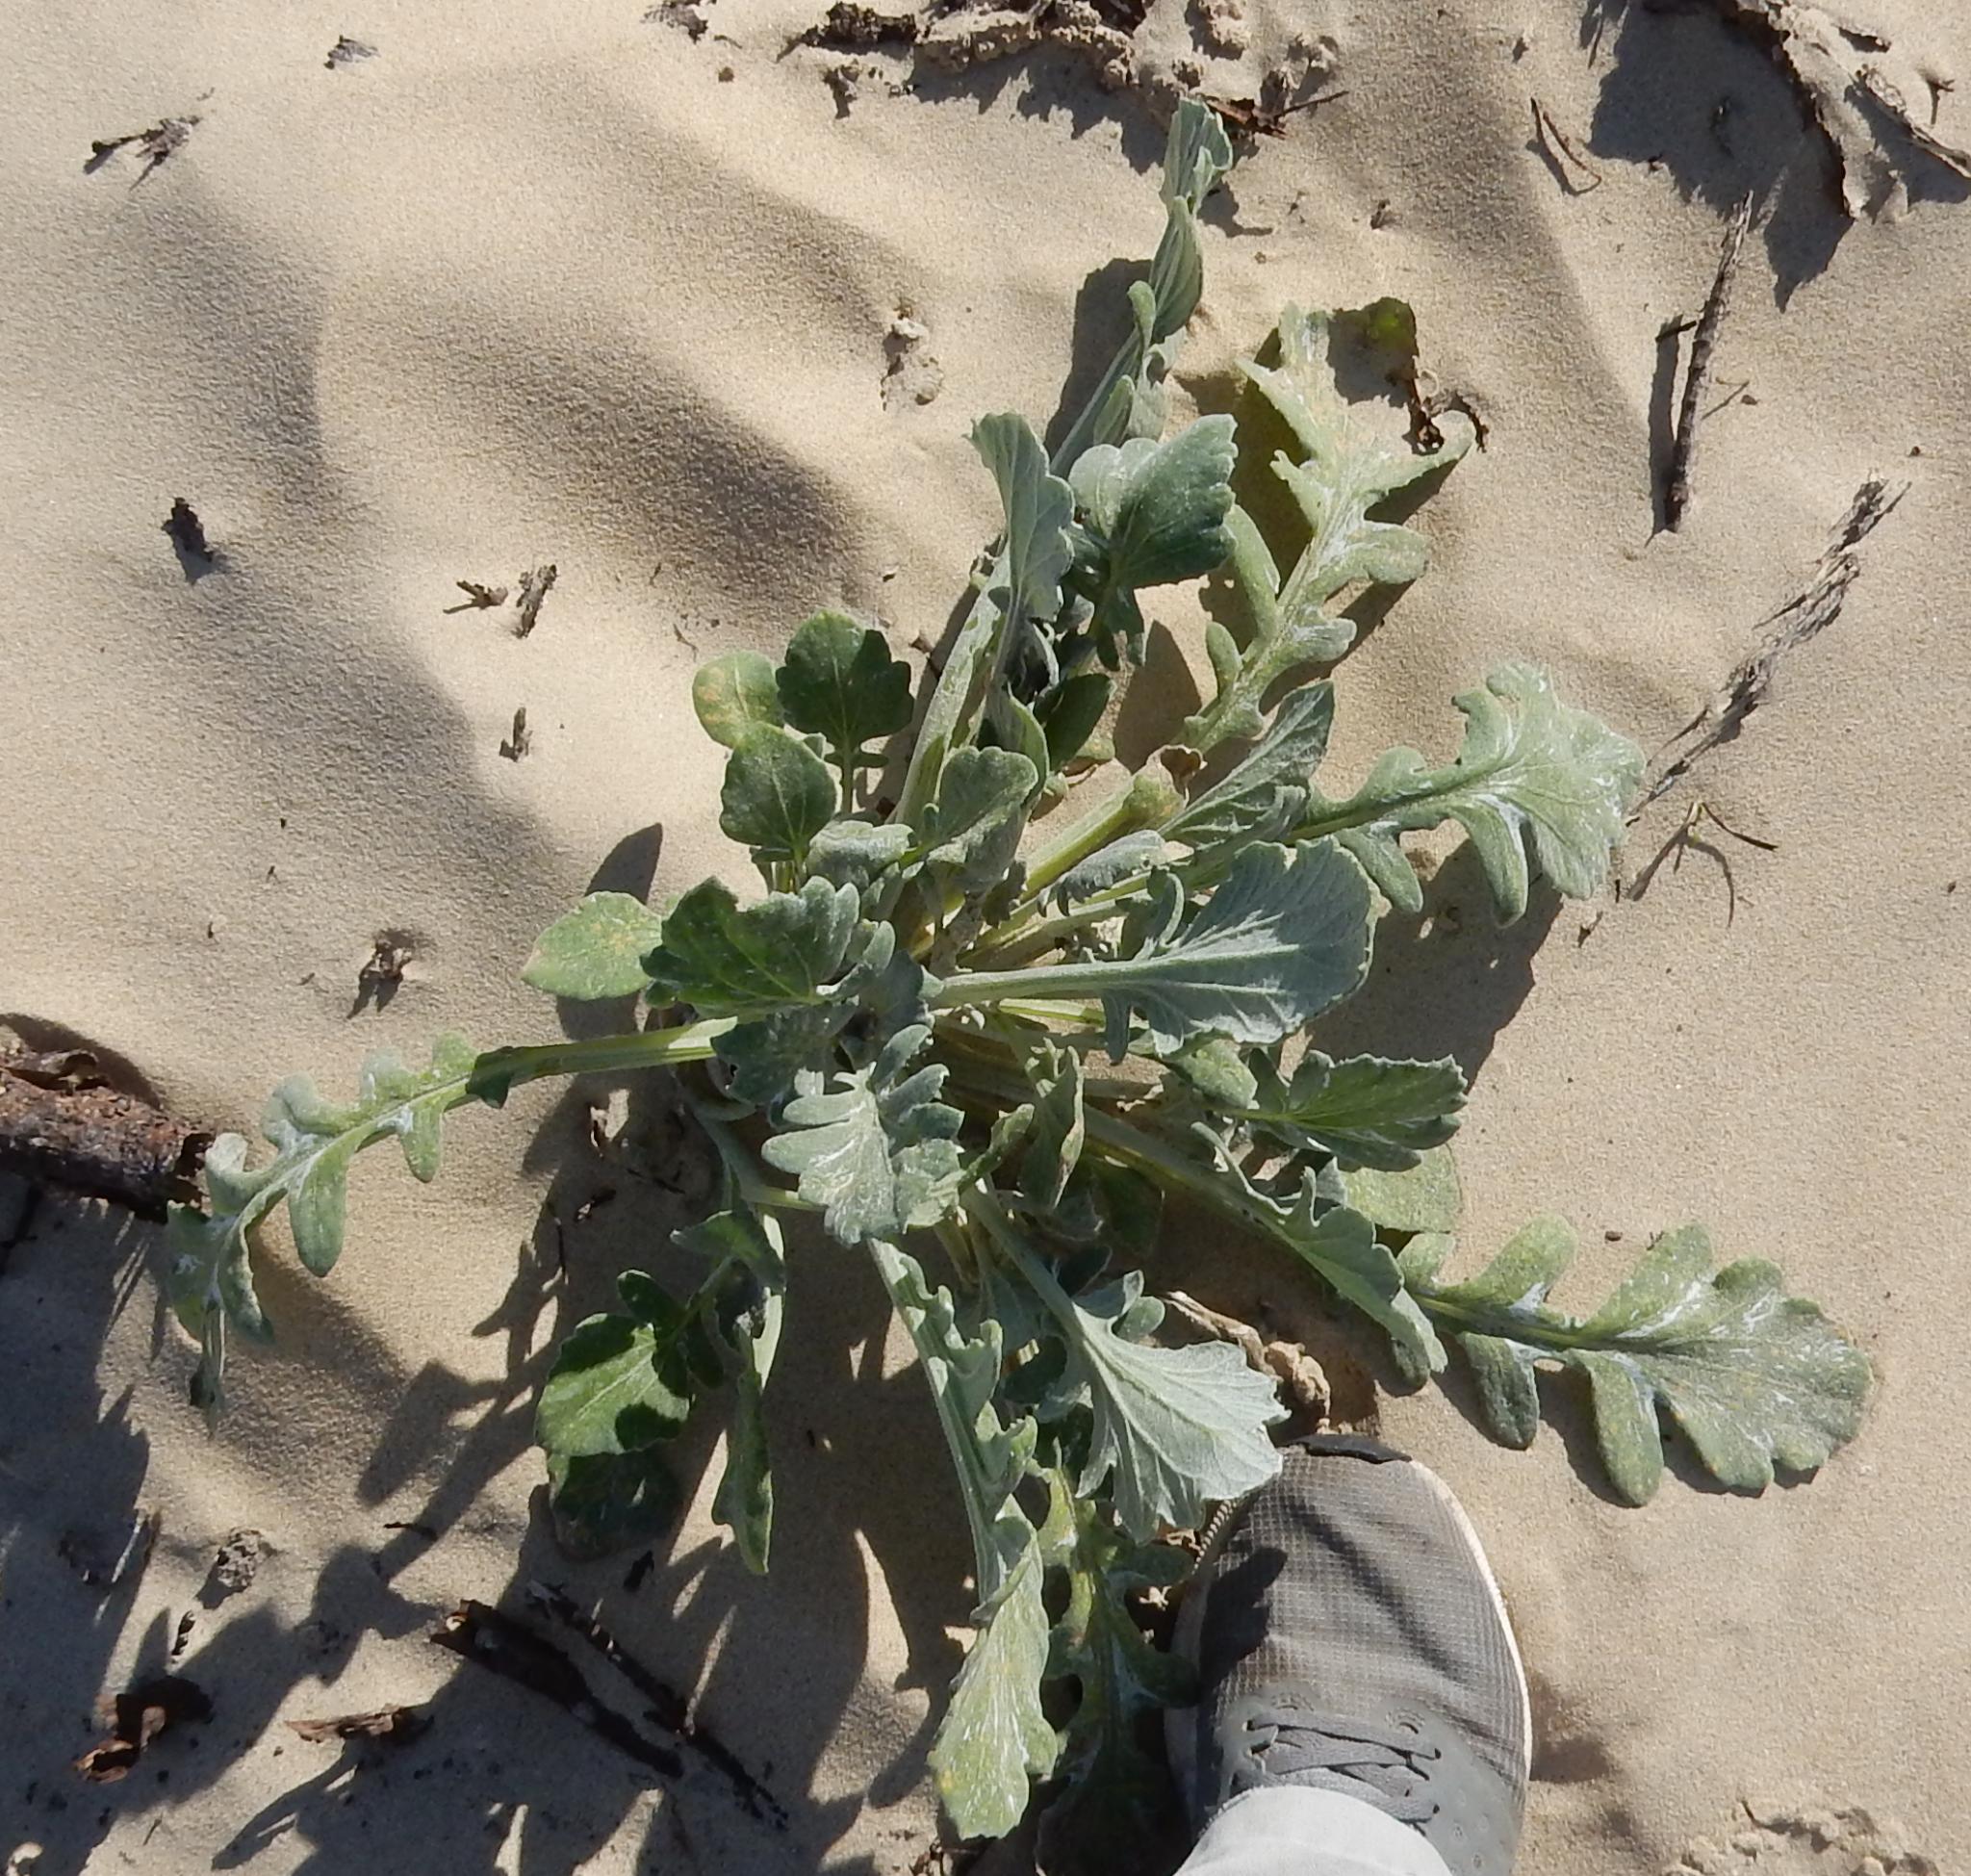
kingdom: Plantae
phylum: Tracheophyta
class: Magnoliopsida
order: Asterales
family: Asteraceae
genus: Arctotheca
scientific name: Arctotheca populifolia
